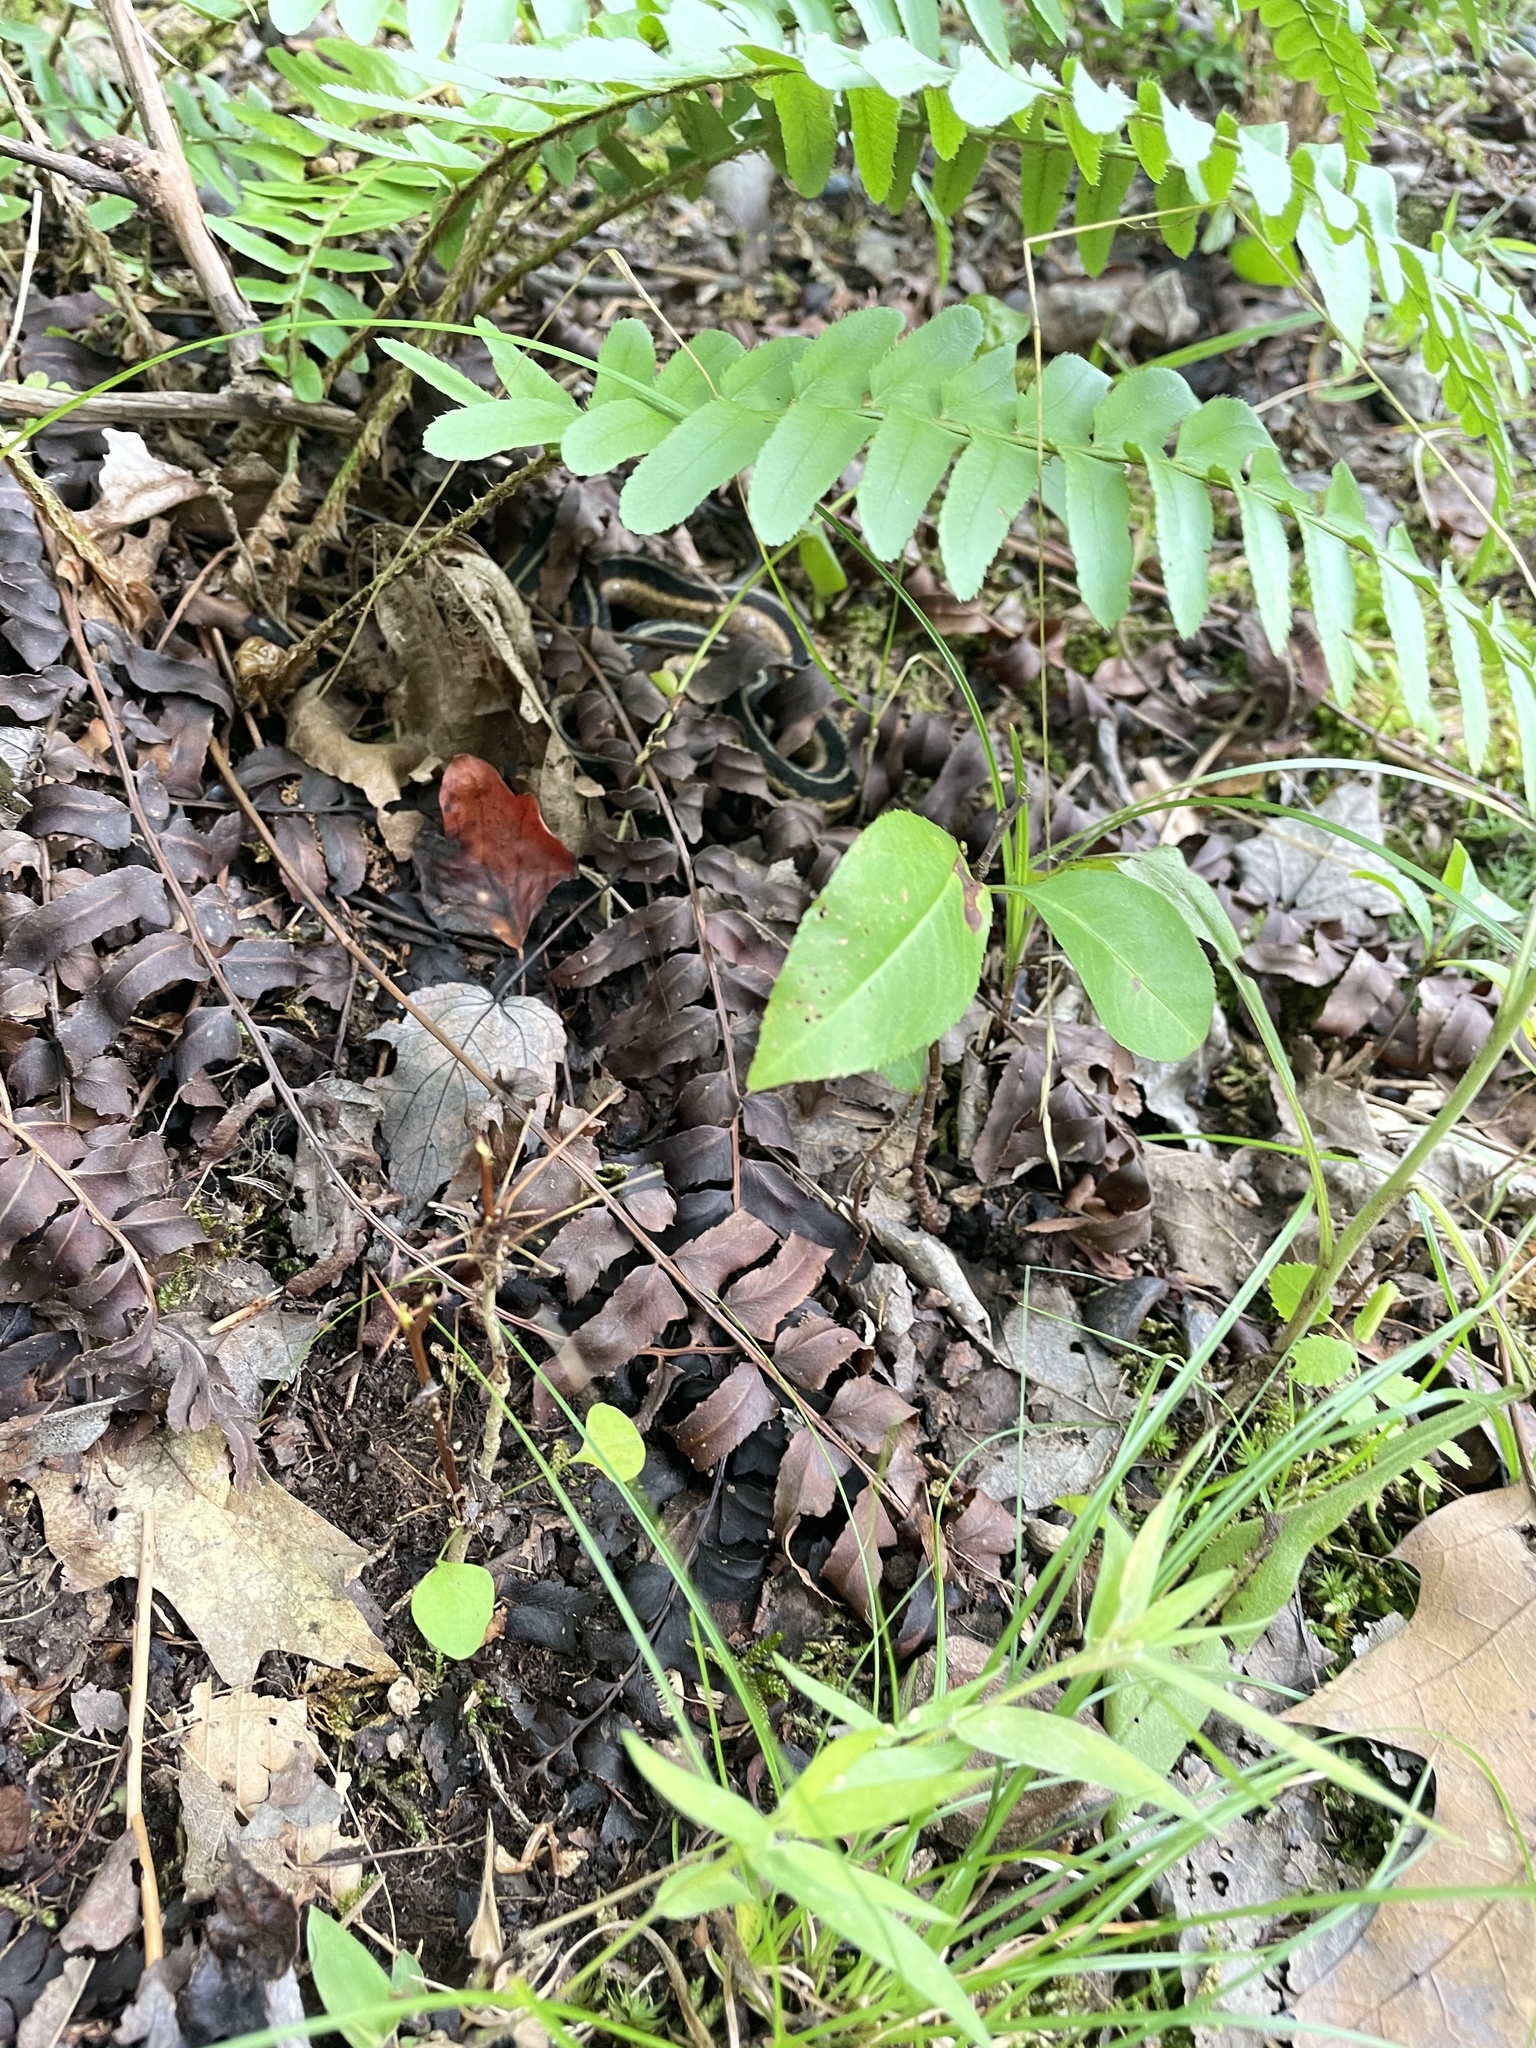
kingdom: Animalia
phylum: Chordata
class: Squamata
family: Colubridae
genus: Thamnophis
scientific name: Thamnophis sirtalis
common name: Common garter snake
